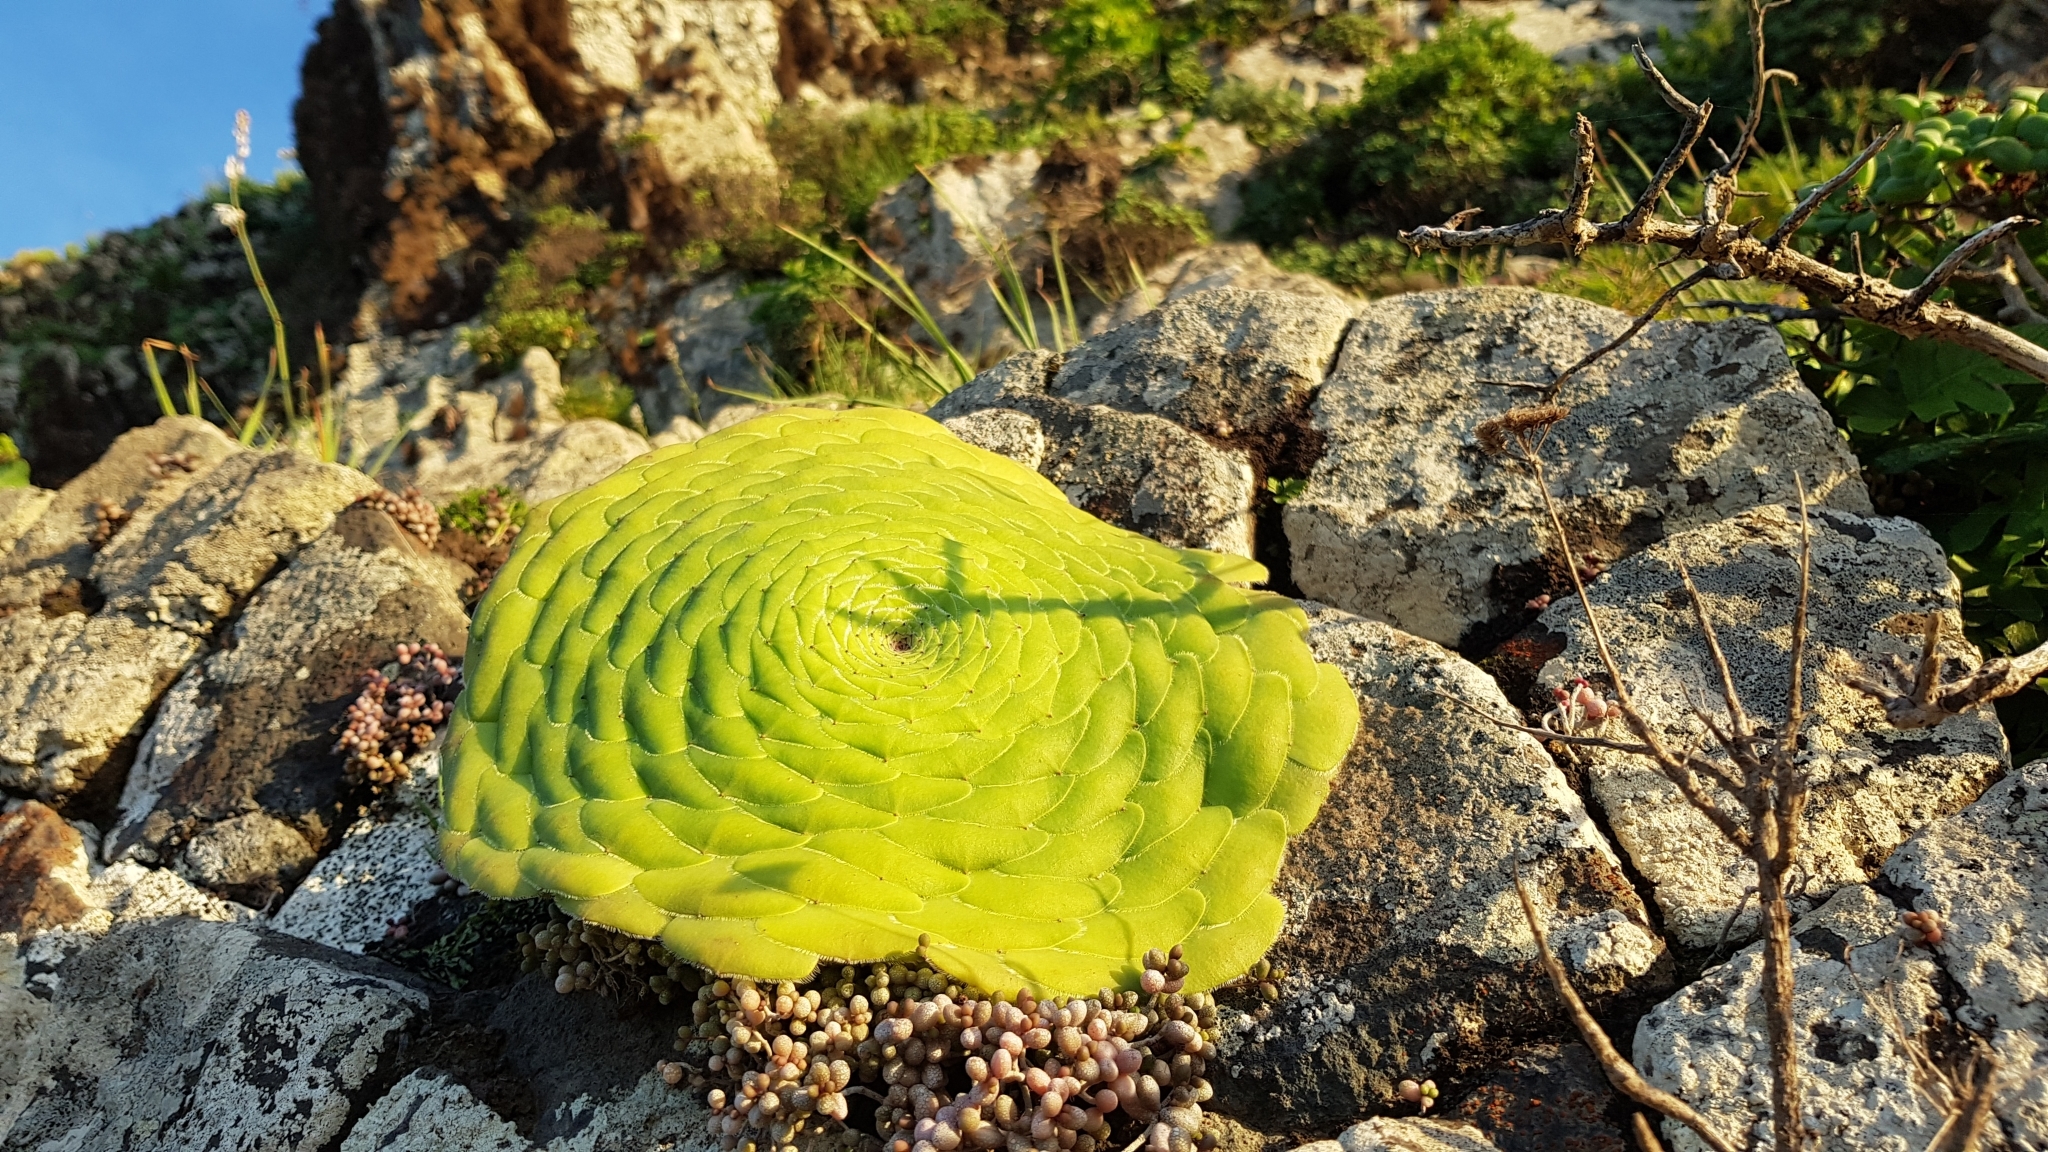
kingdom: Plantae
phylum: Tracheophyta
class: Magnoliopsida
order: Saxifragales
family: Crassulaceae
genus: Aeonium
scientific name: Aeonium tabulaeforme
